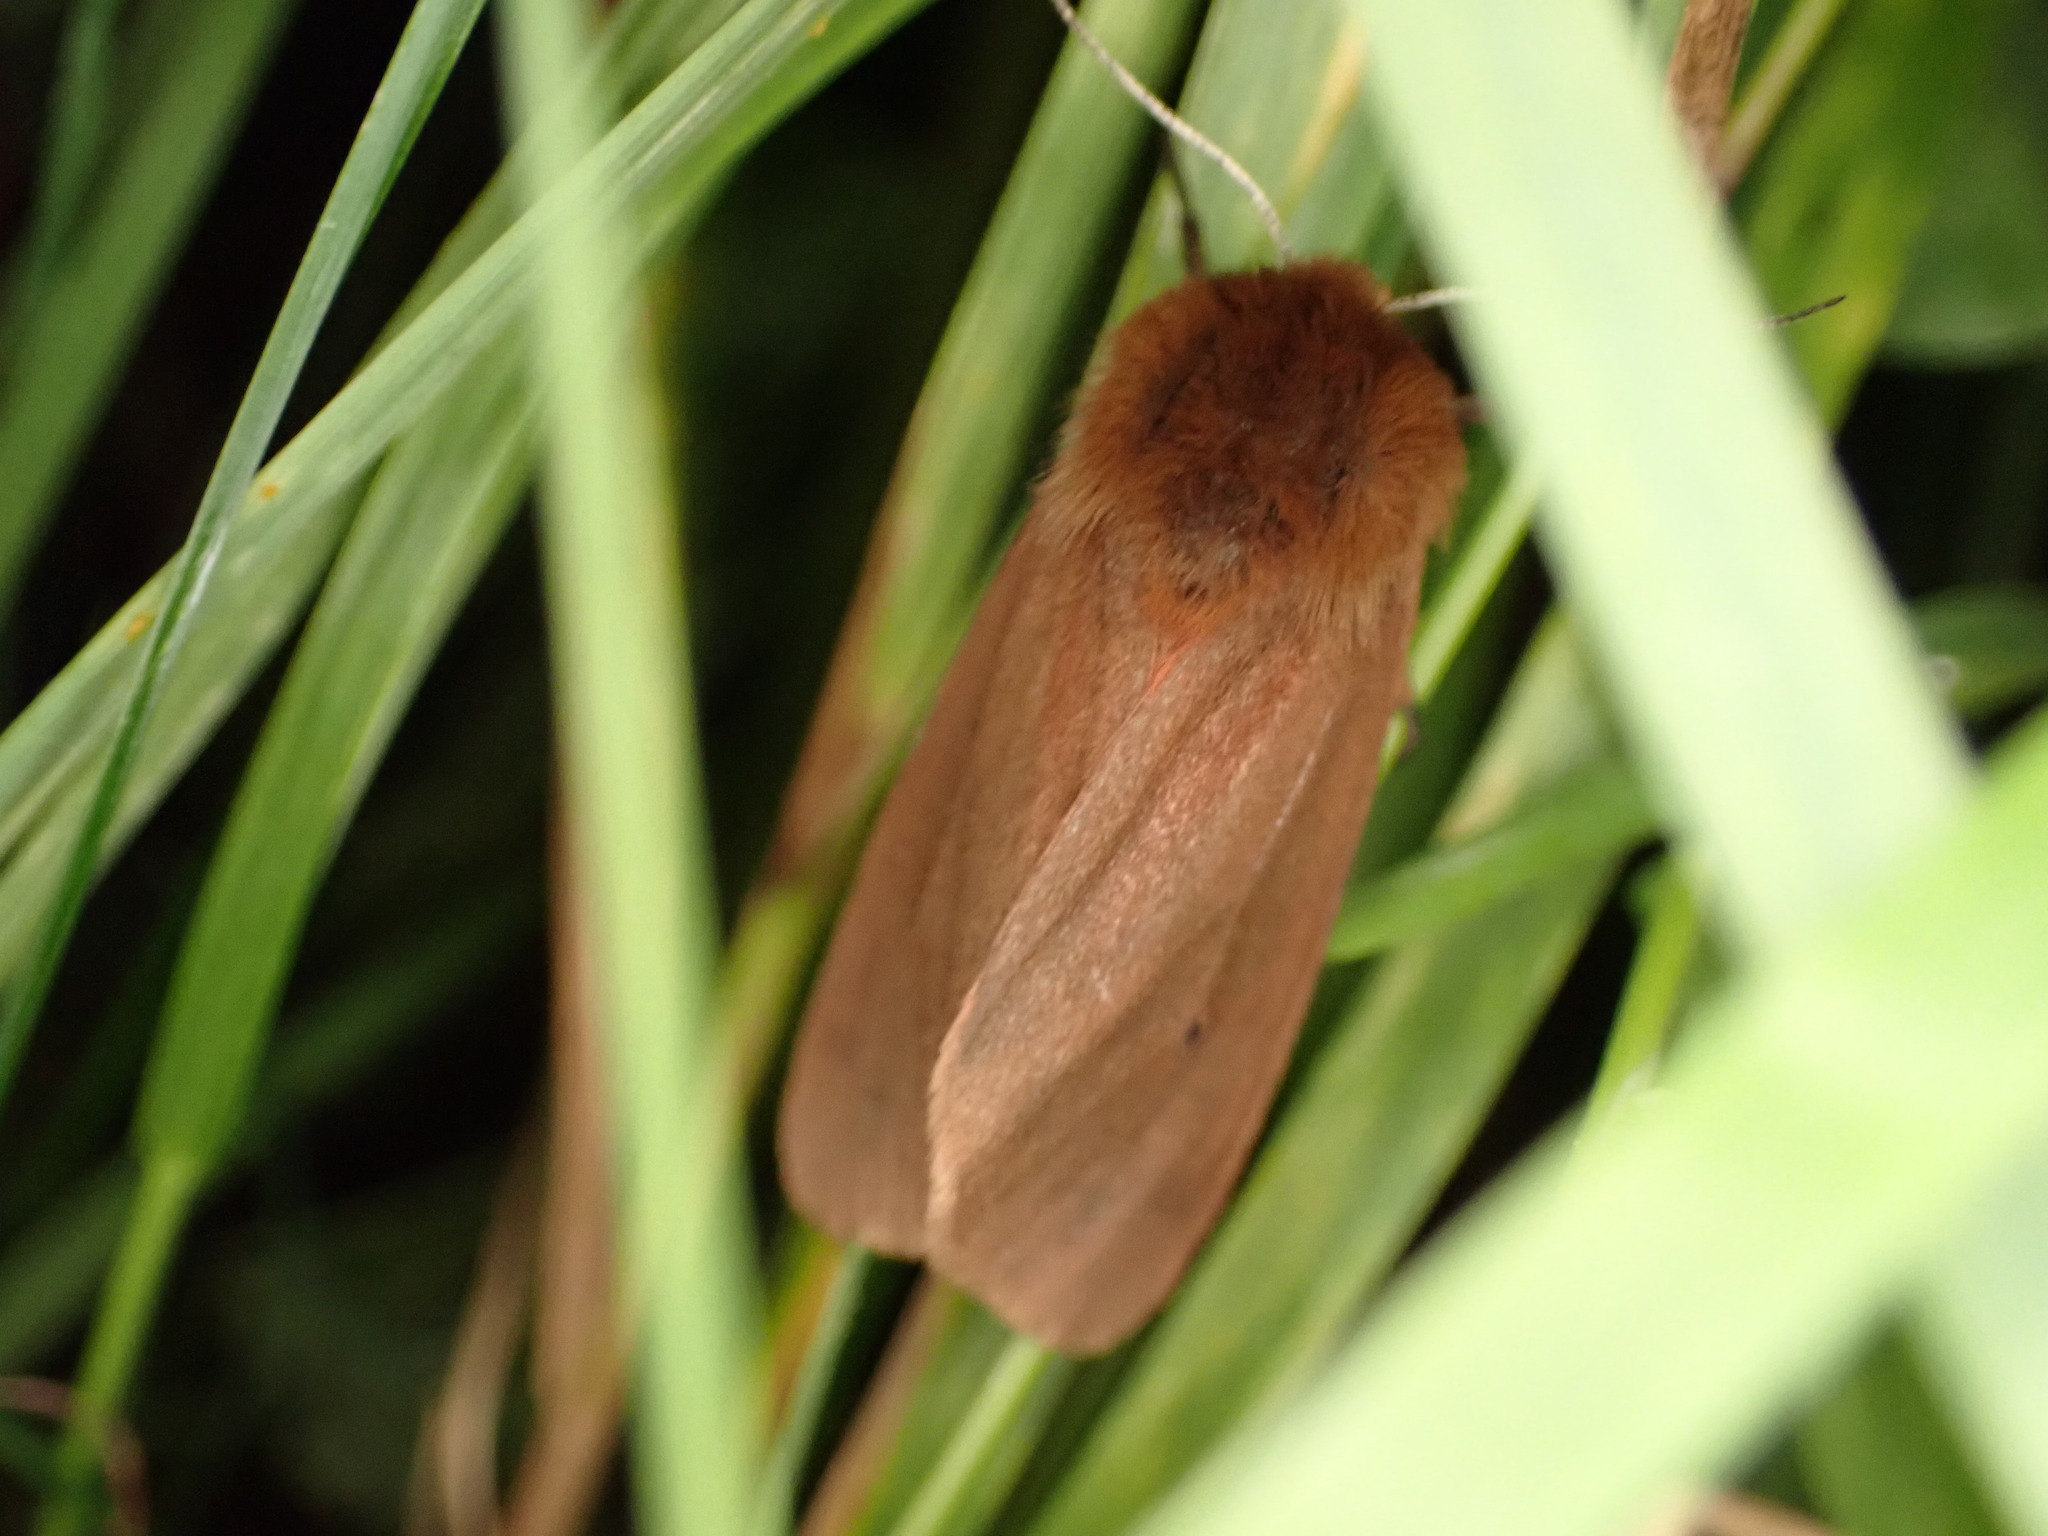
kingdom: Animalia
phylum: Arthropoda
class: Insecta
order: Lepidoptera
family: Erebidae
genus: Phragmatobia
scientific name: Phragmatobia fuliginosa
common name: Ruby tiger
